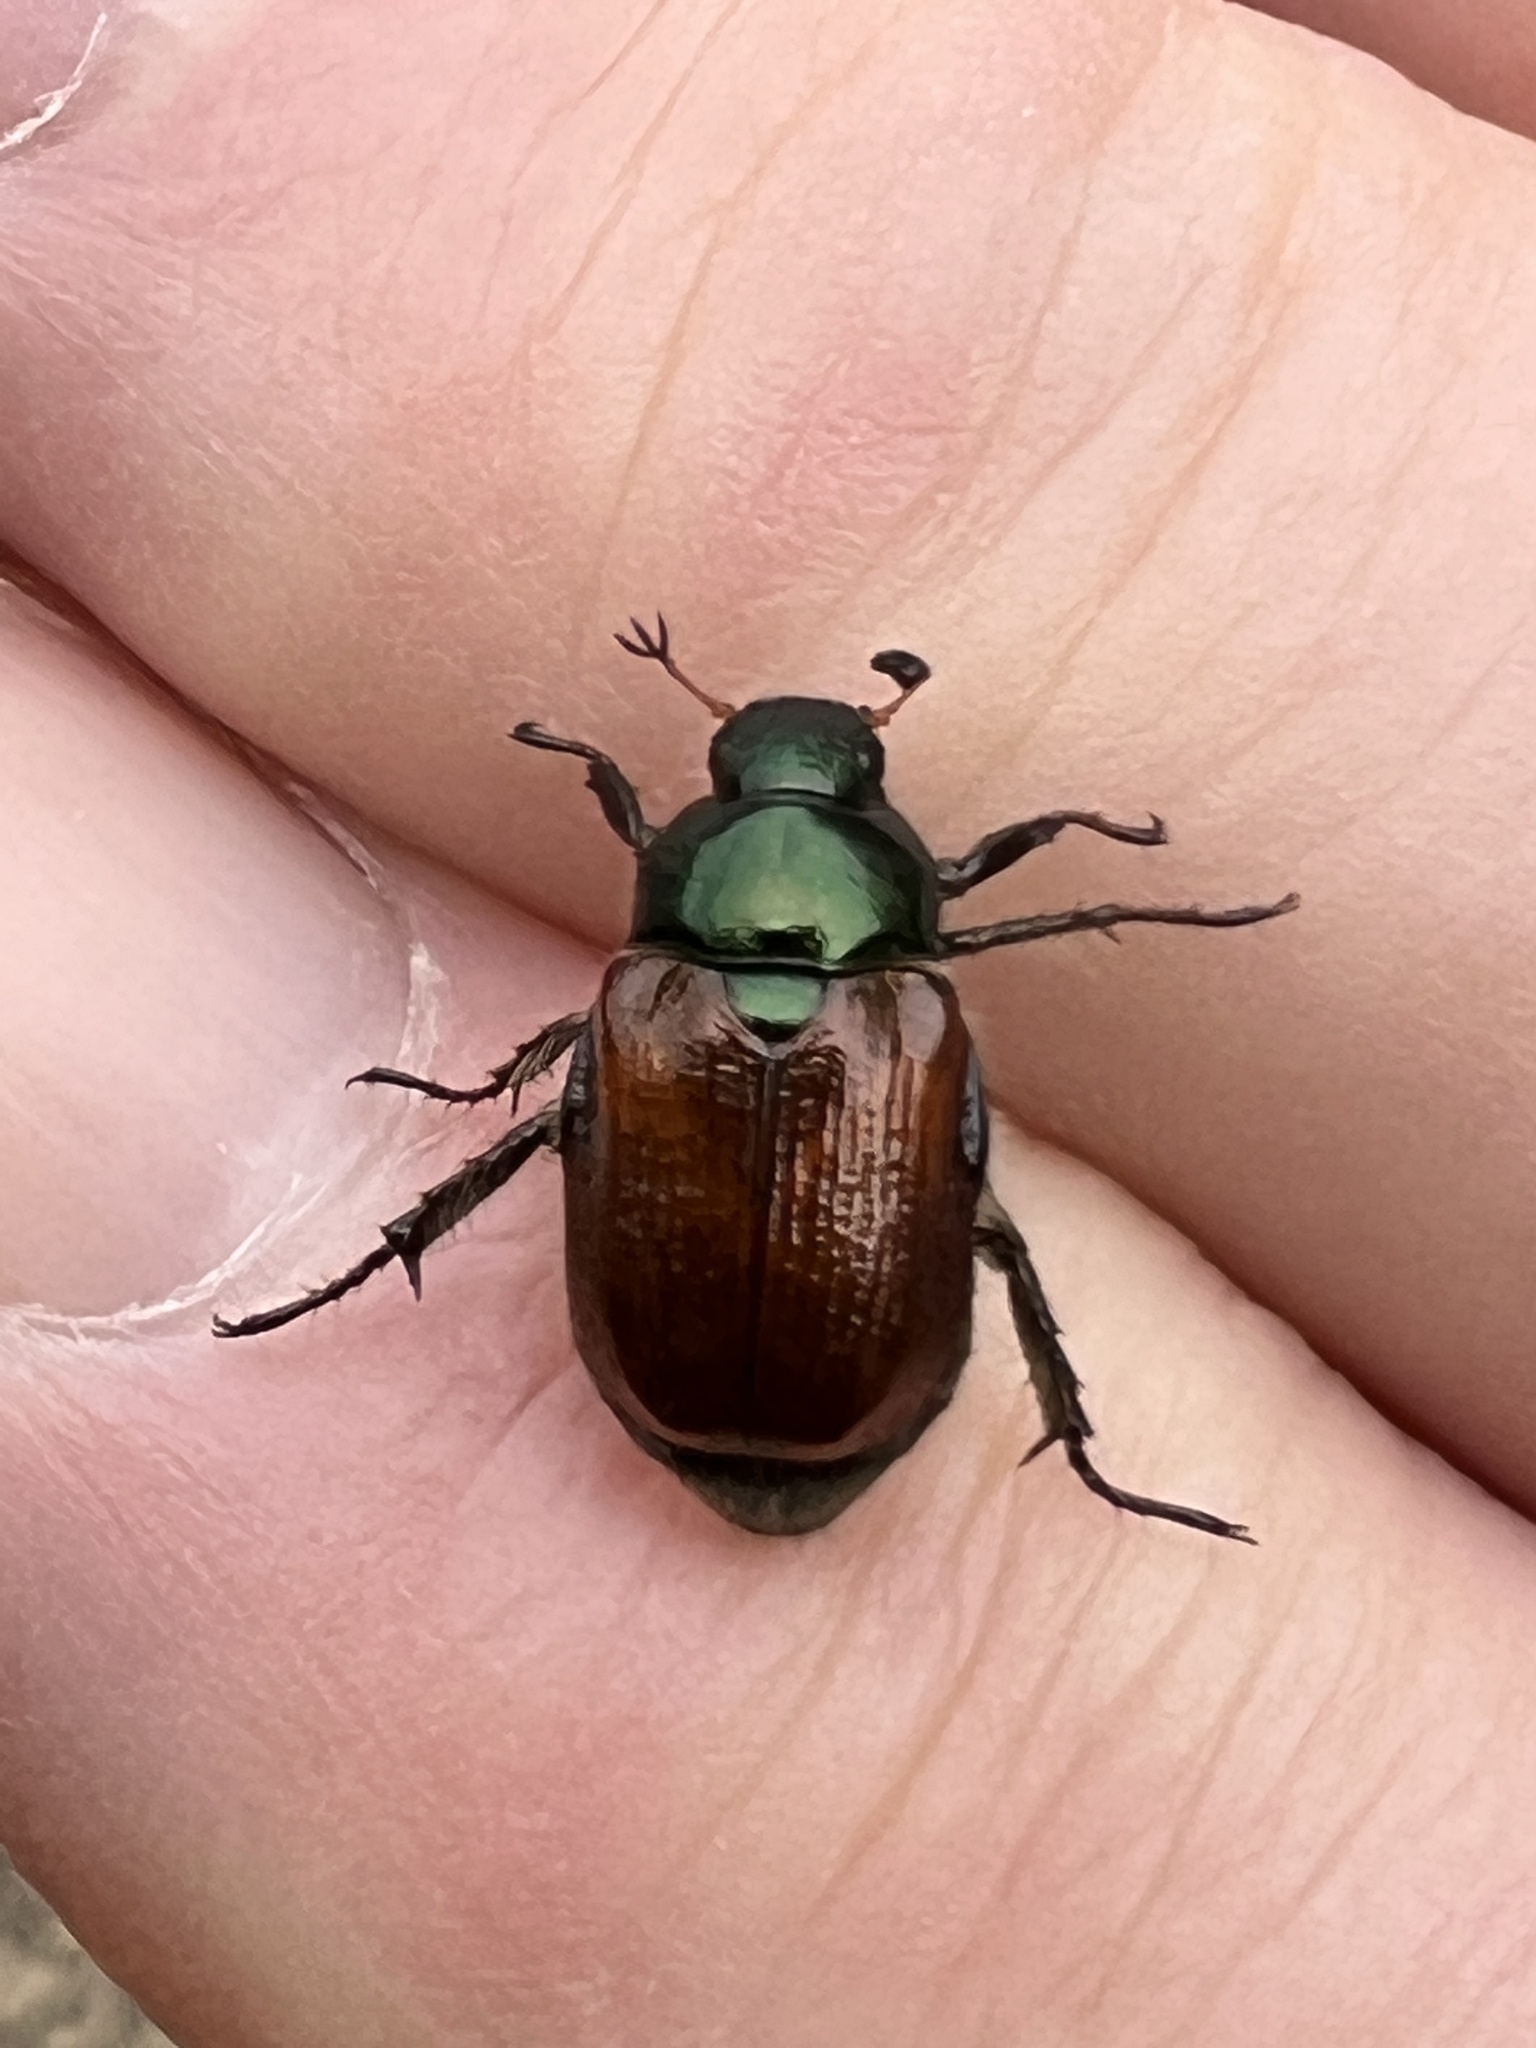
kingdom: Animalia
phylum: Arthropoda
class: Insecta
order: Coleoptera
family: Scarabaeidae
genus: Phyllopertha
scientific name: Phyllopertha horticola
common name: Garden chafer
